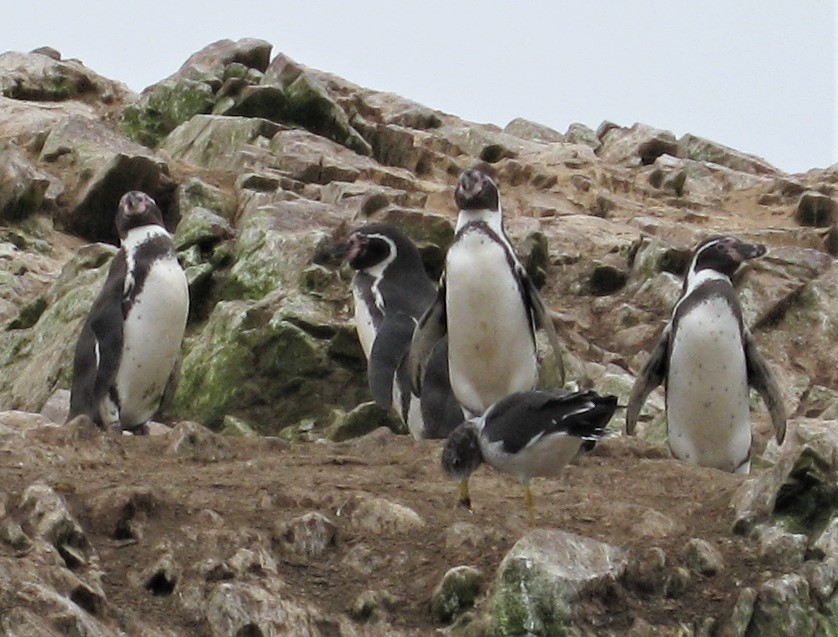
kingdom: Animalia
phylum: Chordata
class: Aves
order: Sphenisciformes
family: Spheniscidae
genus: Spheniscus
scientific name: Spheniscus humboldti
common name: Humboldt penguin
